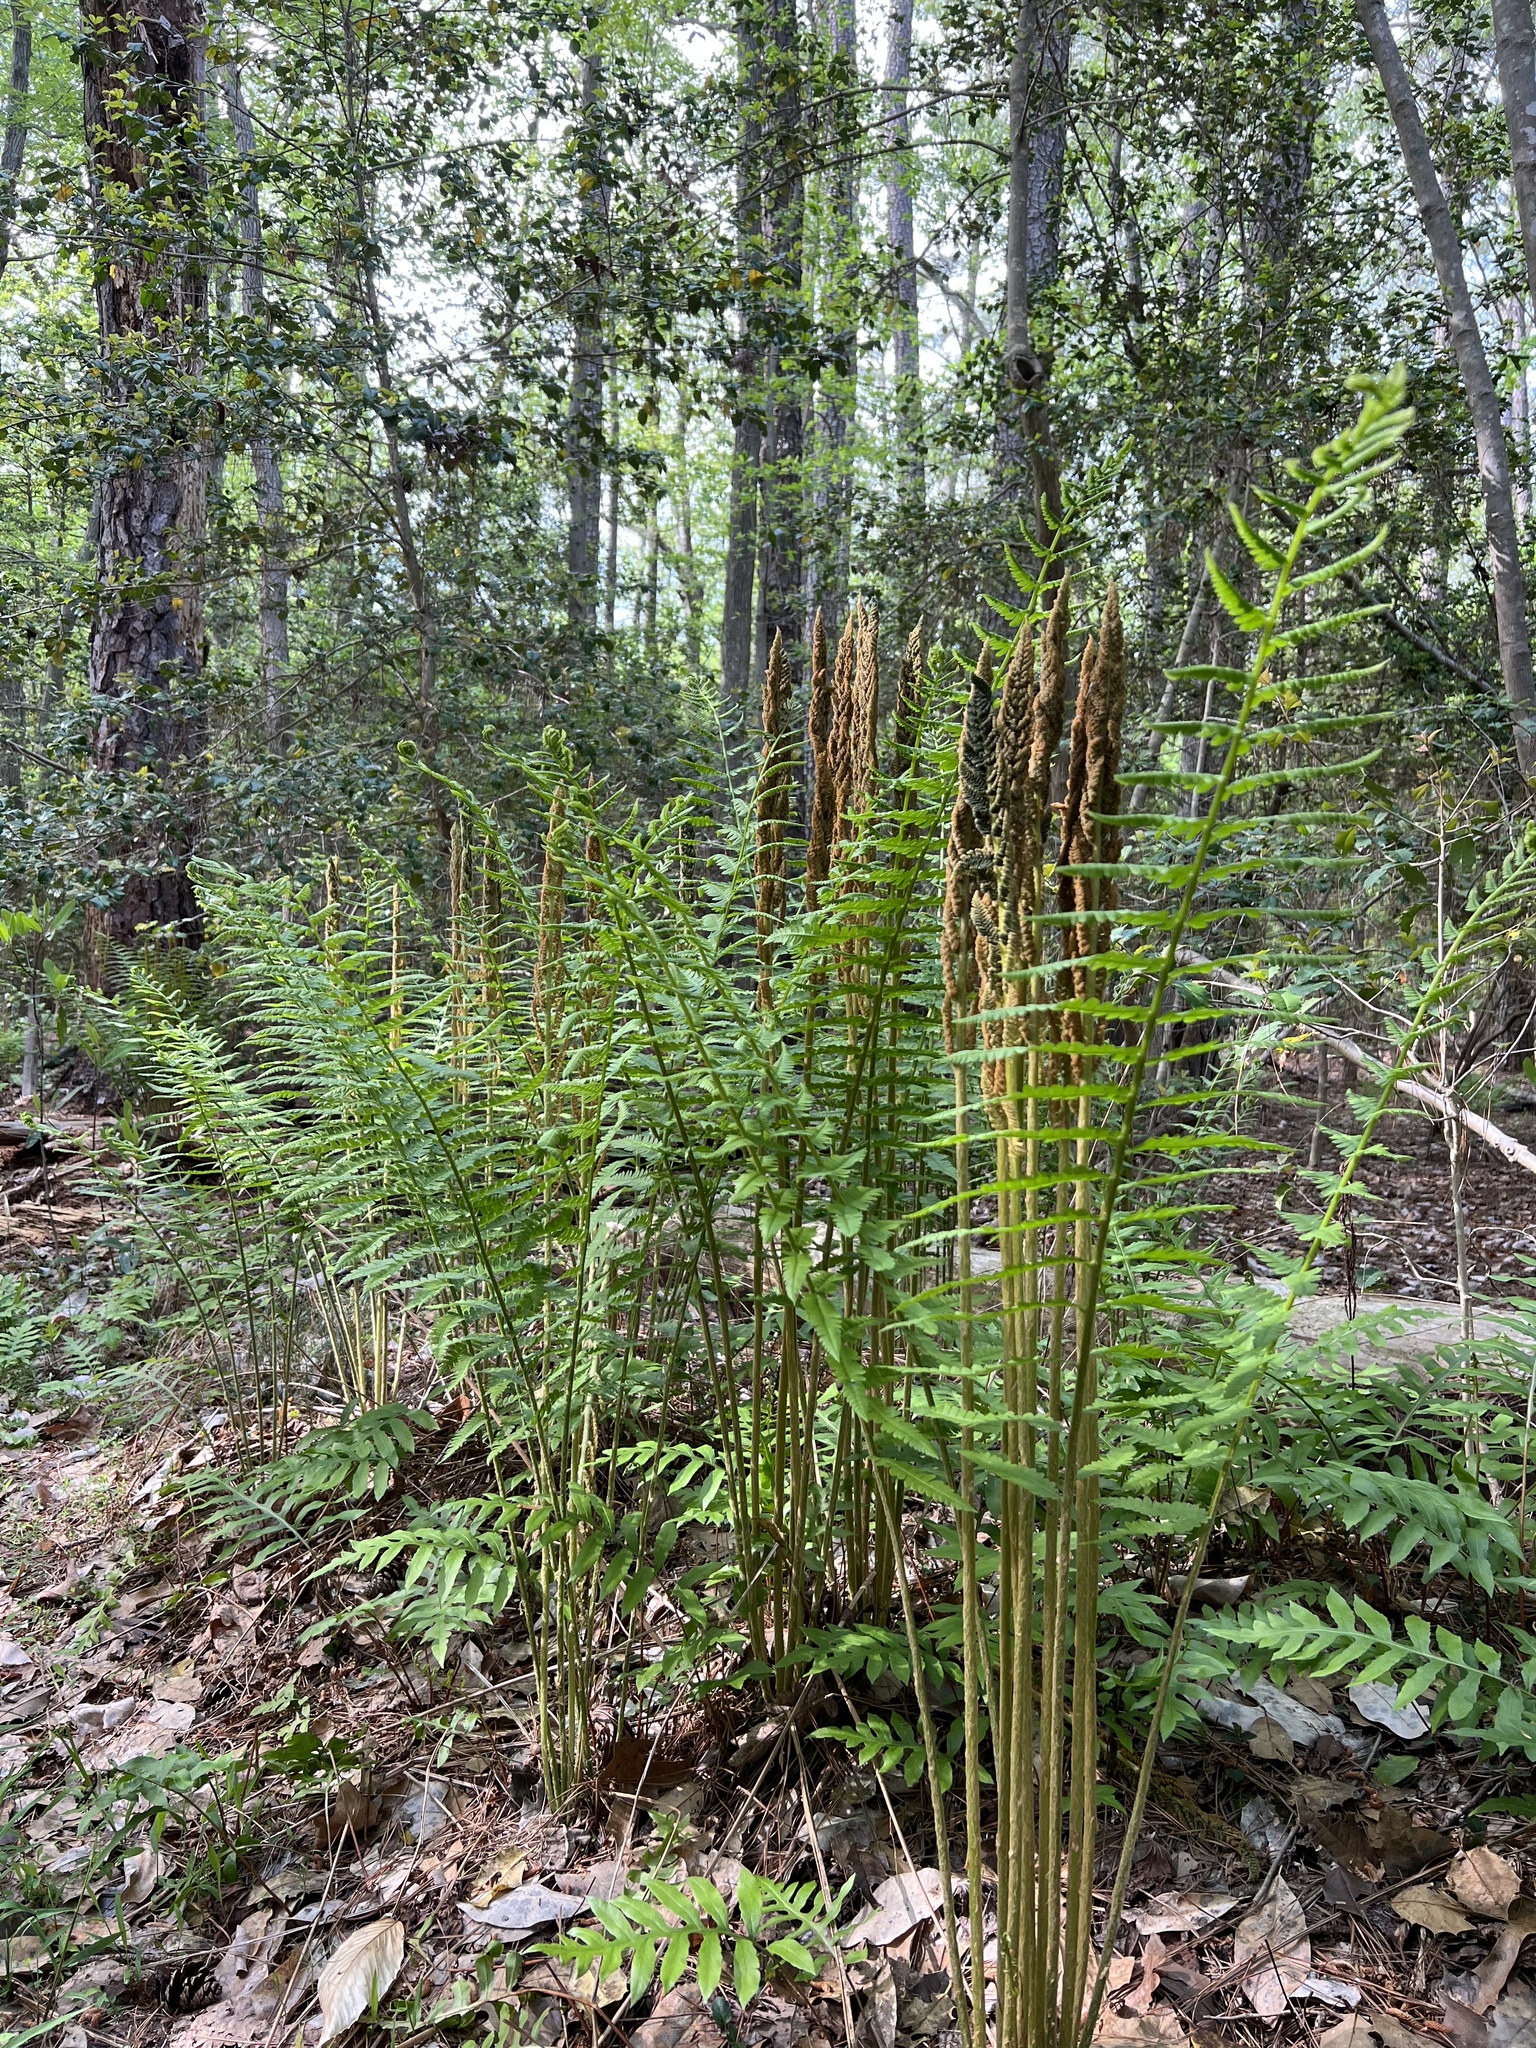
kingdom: Plantae
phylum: Tracheophyta
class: Polypodiopsida
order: Osmundales
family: Osmundaceae
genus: Osmundastrum
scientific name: Osmundastrum cinnamomeum
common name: Cinnamon fern
